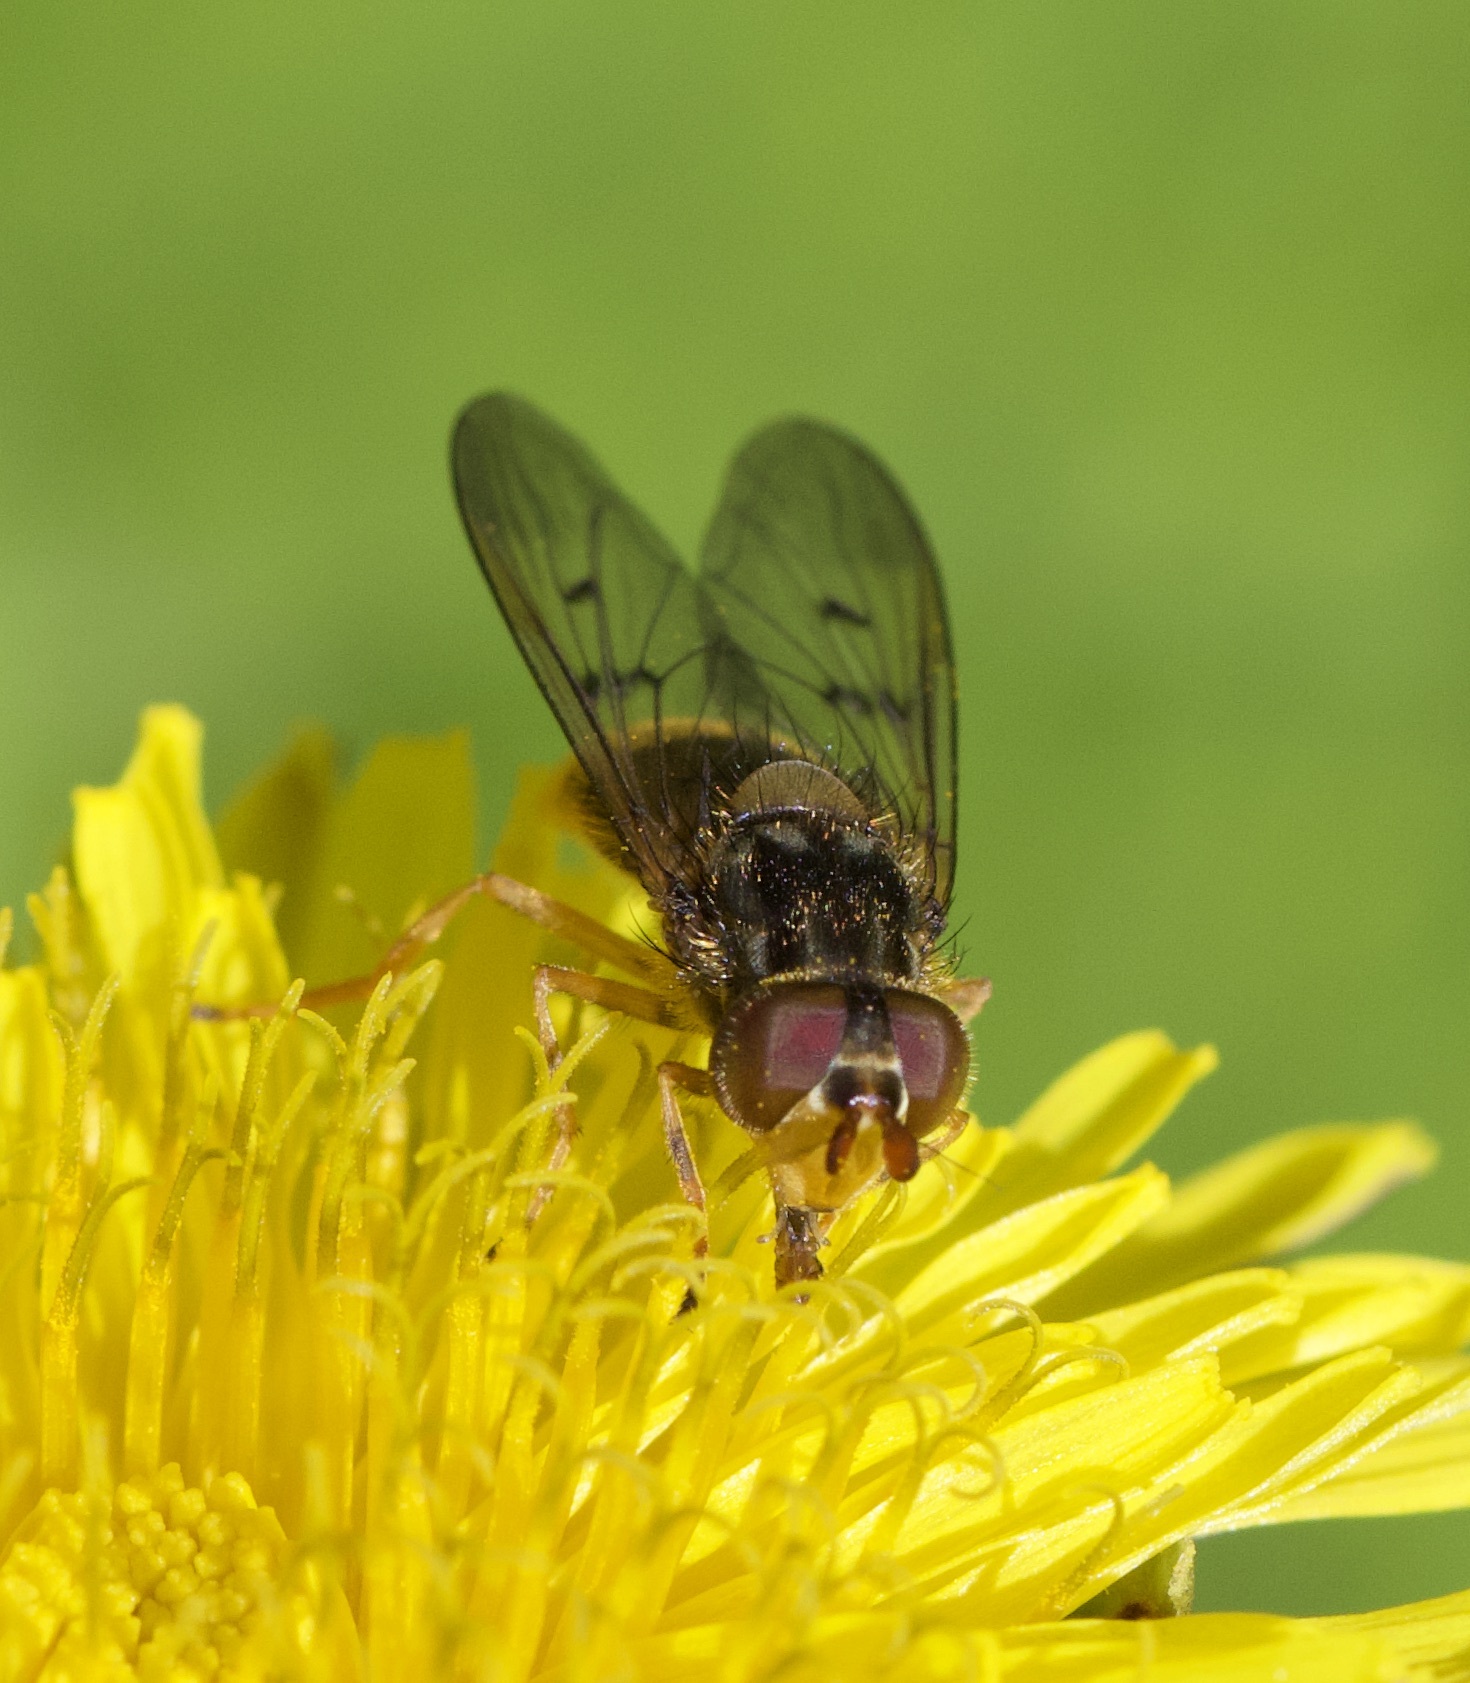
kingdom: Animalia
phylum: Arthropoda
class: Insecta
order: Diptera
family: Syrphidae
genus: Ferdinandea
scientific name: Ferdinandea cuprea
